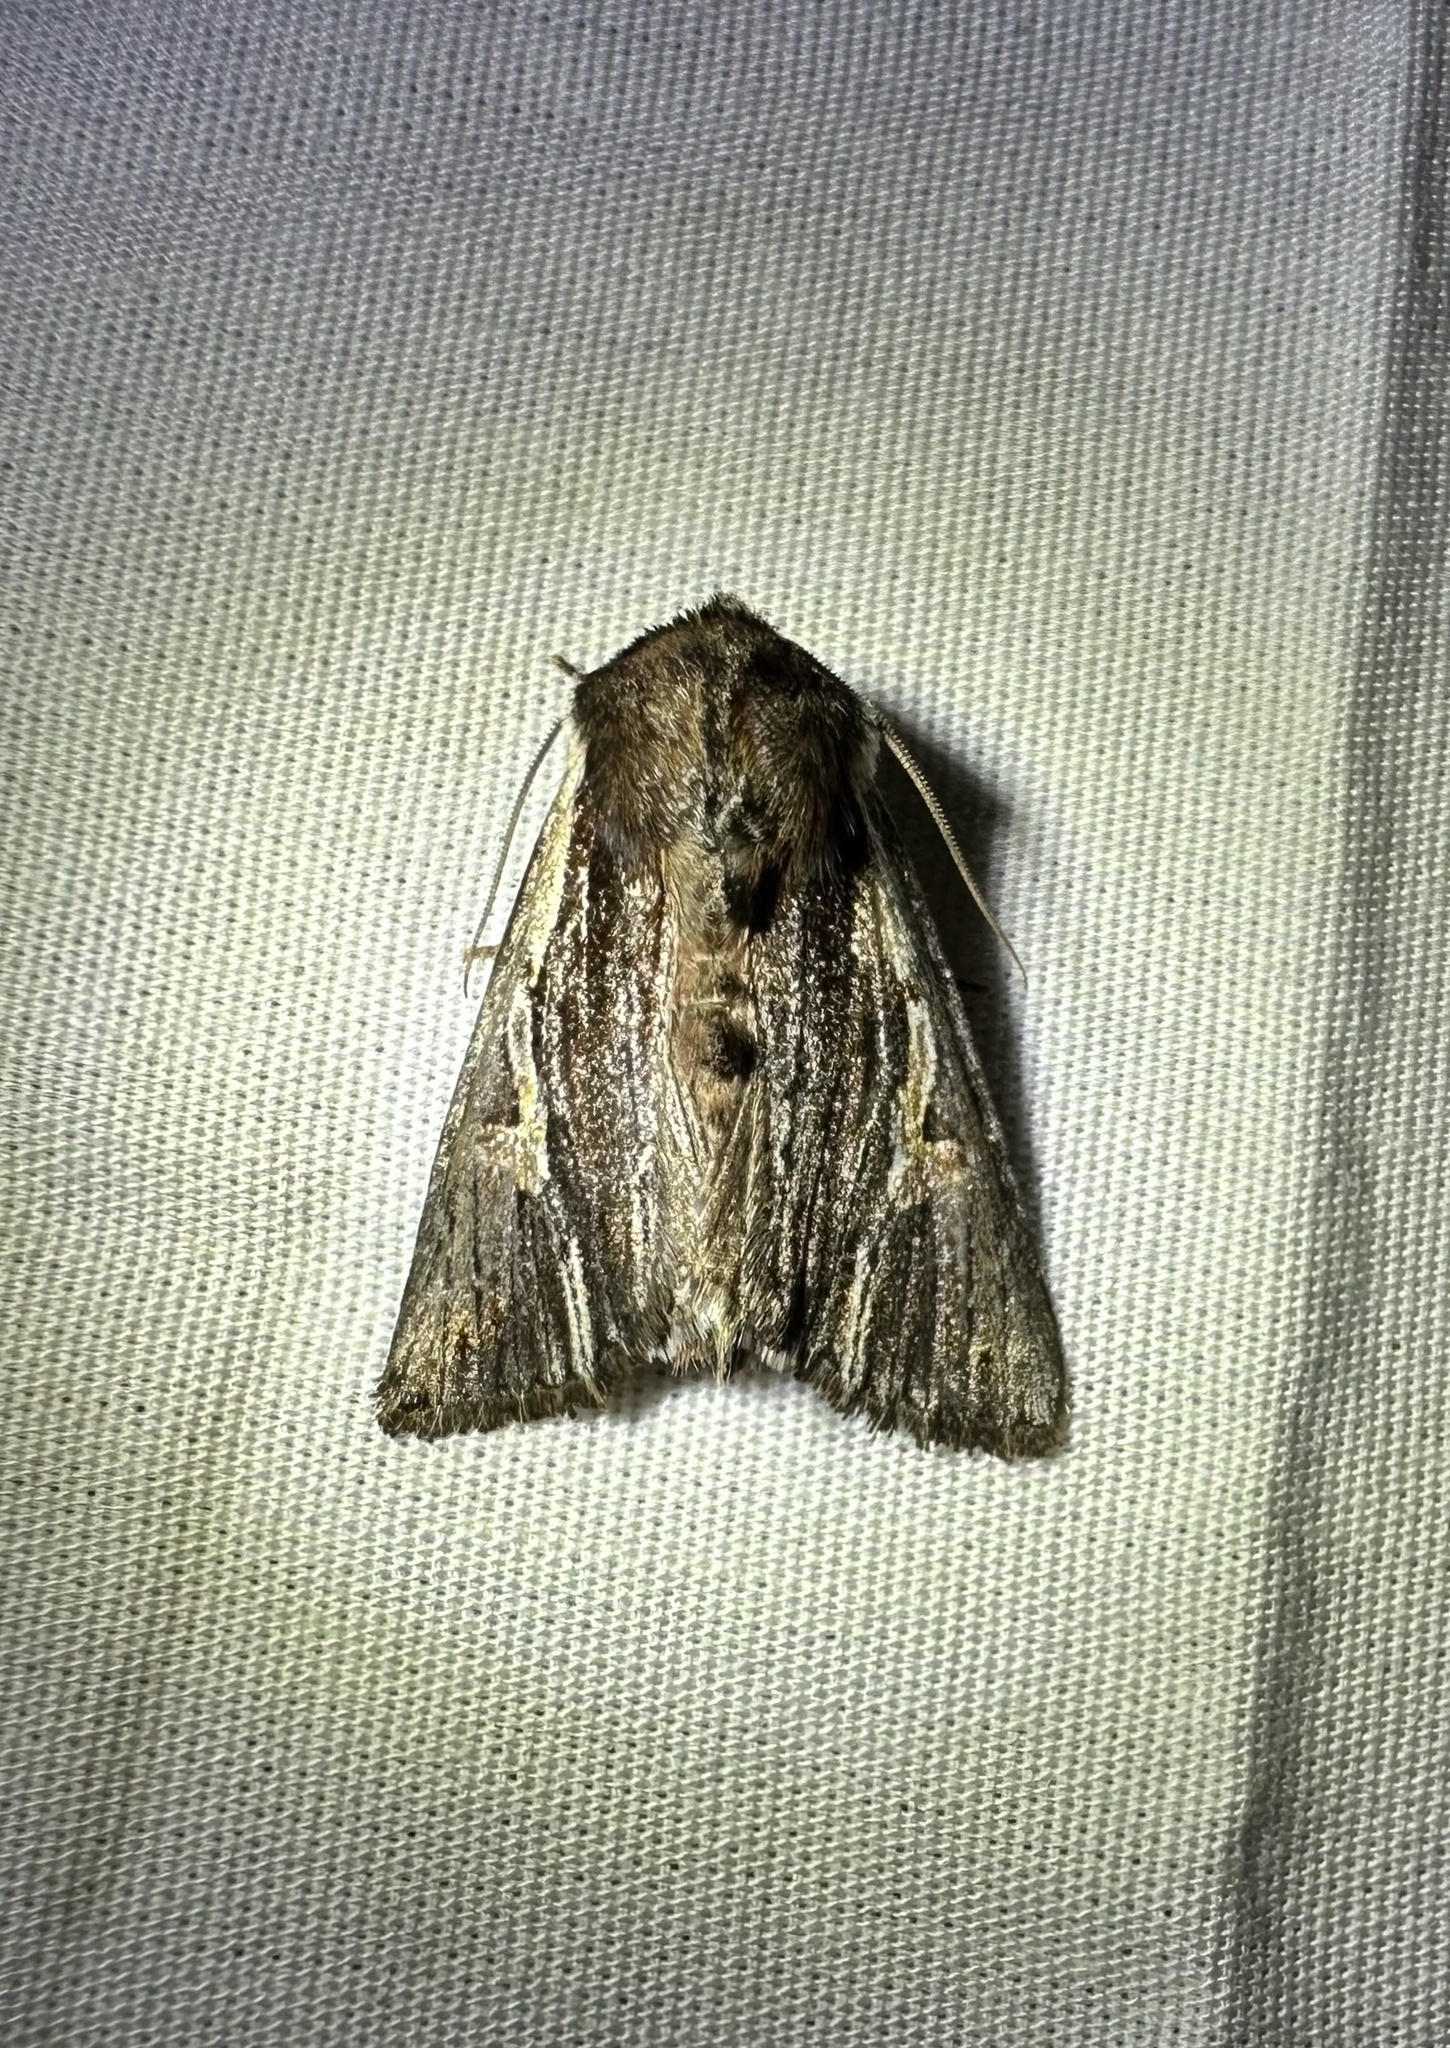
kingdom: Animalia
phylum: Arthropoda
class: Insecta
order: Lepidoptera
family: Noctuidae
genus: Achatia
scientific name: Achatia evicta
